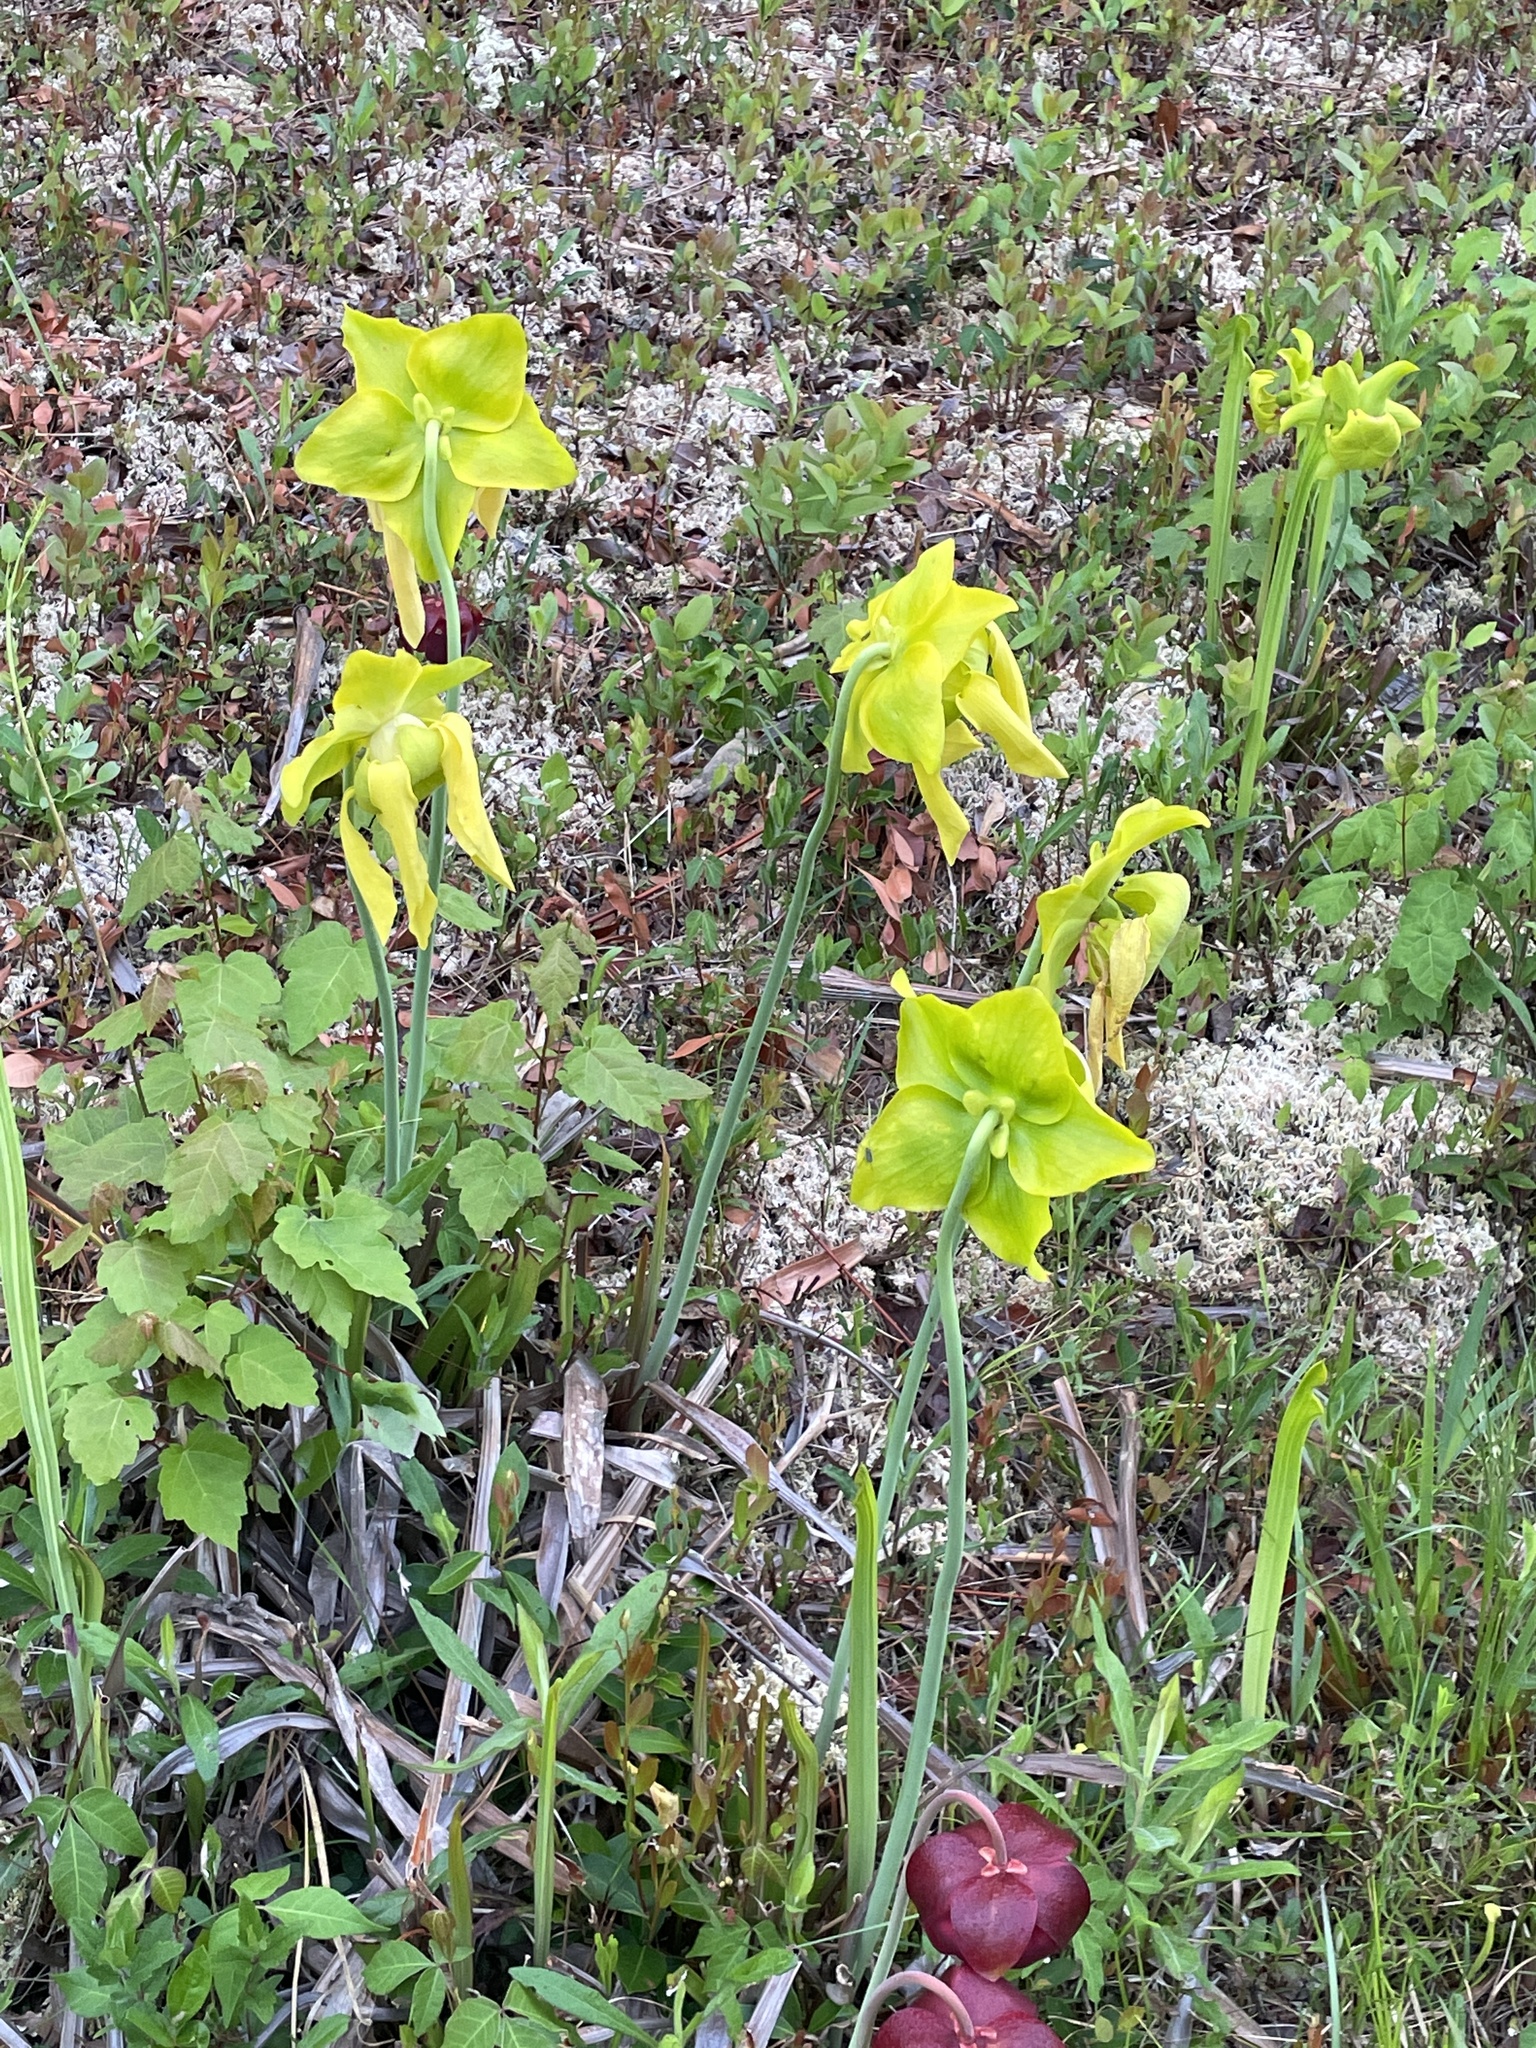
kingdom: Plantae
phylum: Tracheophyta
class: Magnoliopsida
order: Ericales
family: Sarraceniaceae
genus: Sarracenia
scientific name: Sarracenia flava
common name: Trumpets
